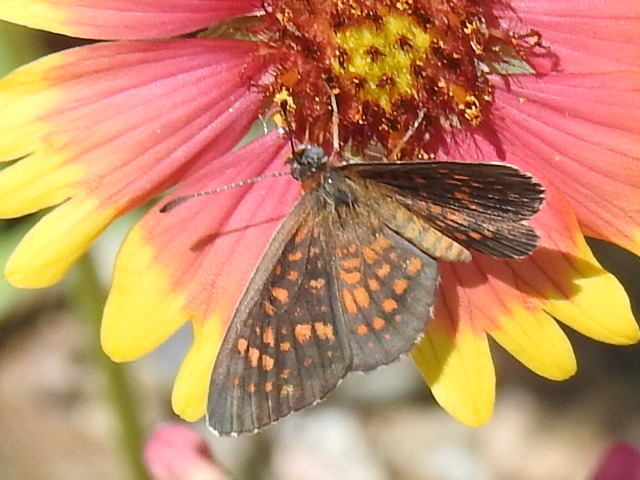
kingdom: Animalia
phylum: Arthropoda
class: Insecta
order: Lepidoptera
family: Nymphalidae
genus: Texola
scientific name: Texola
